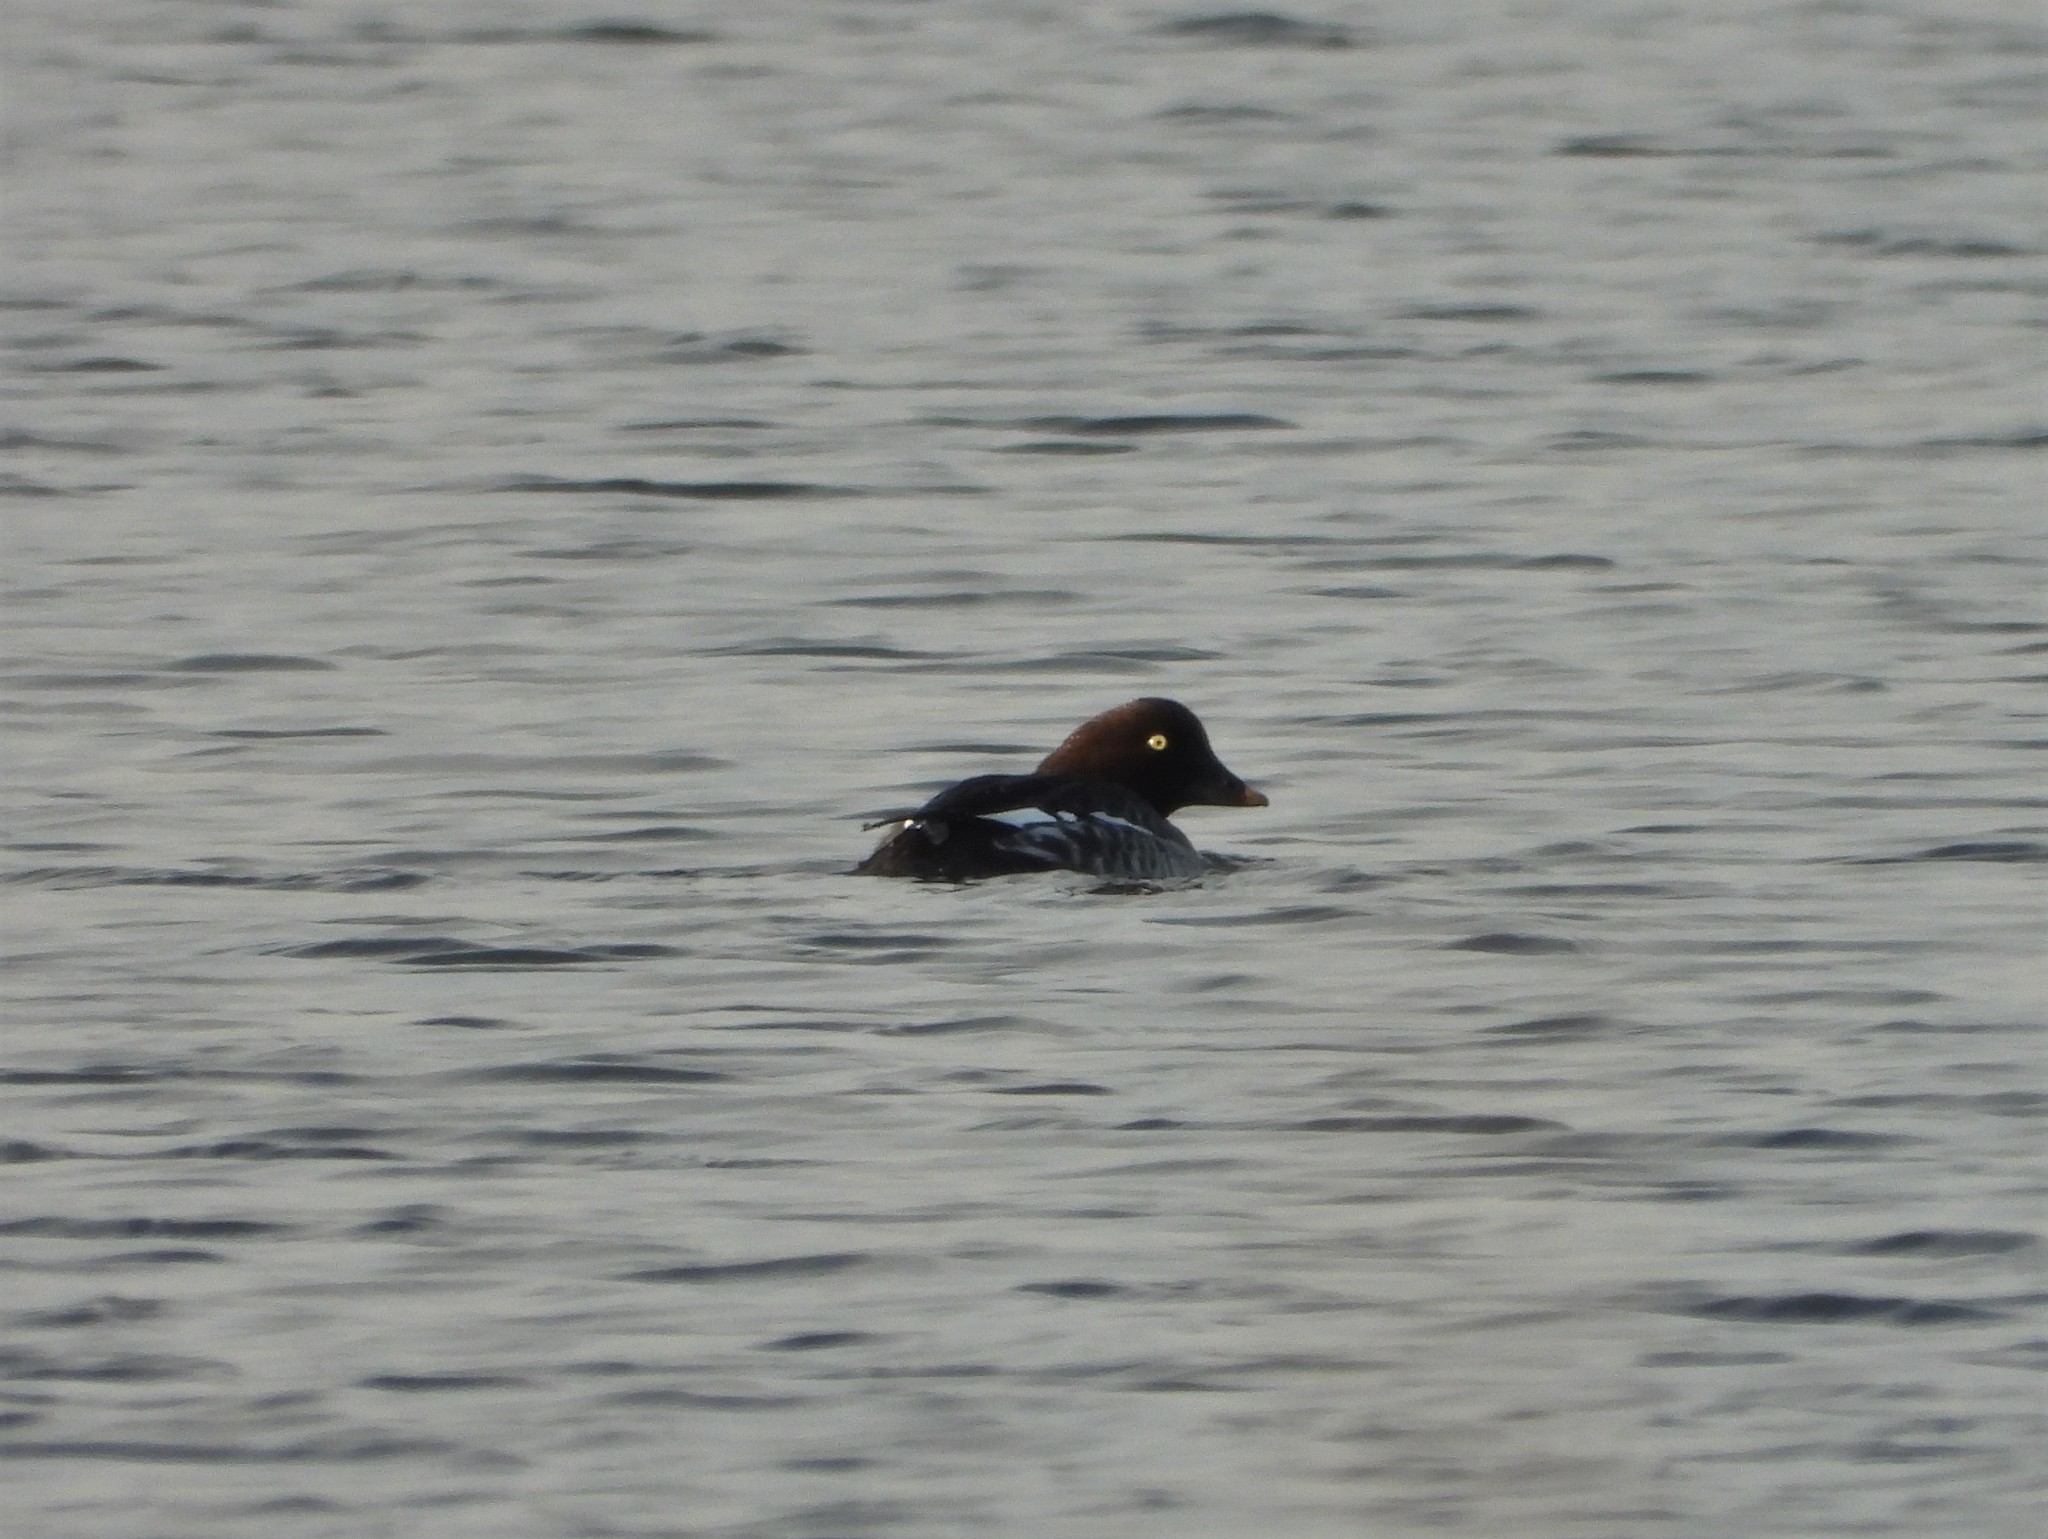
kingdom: Animalia
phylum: Chordata
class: Aves
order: Anseriformes
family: Anatidae
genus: Bucephala
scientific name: Bucephala clangula
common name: Common goldeneye
